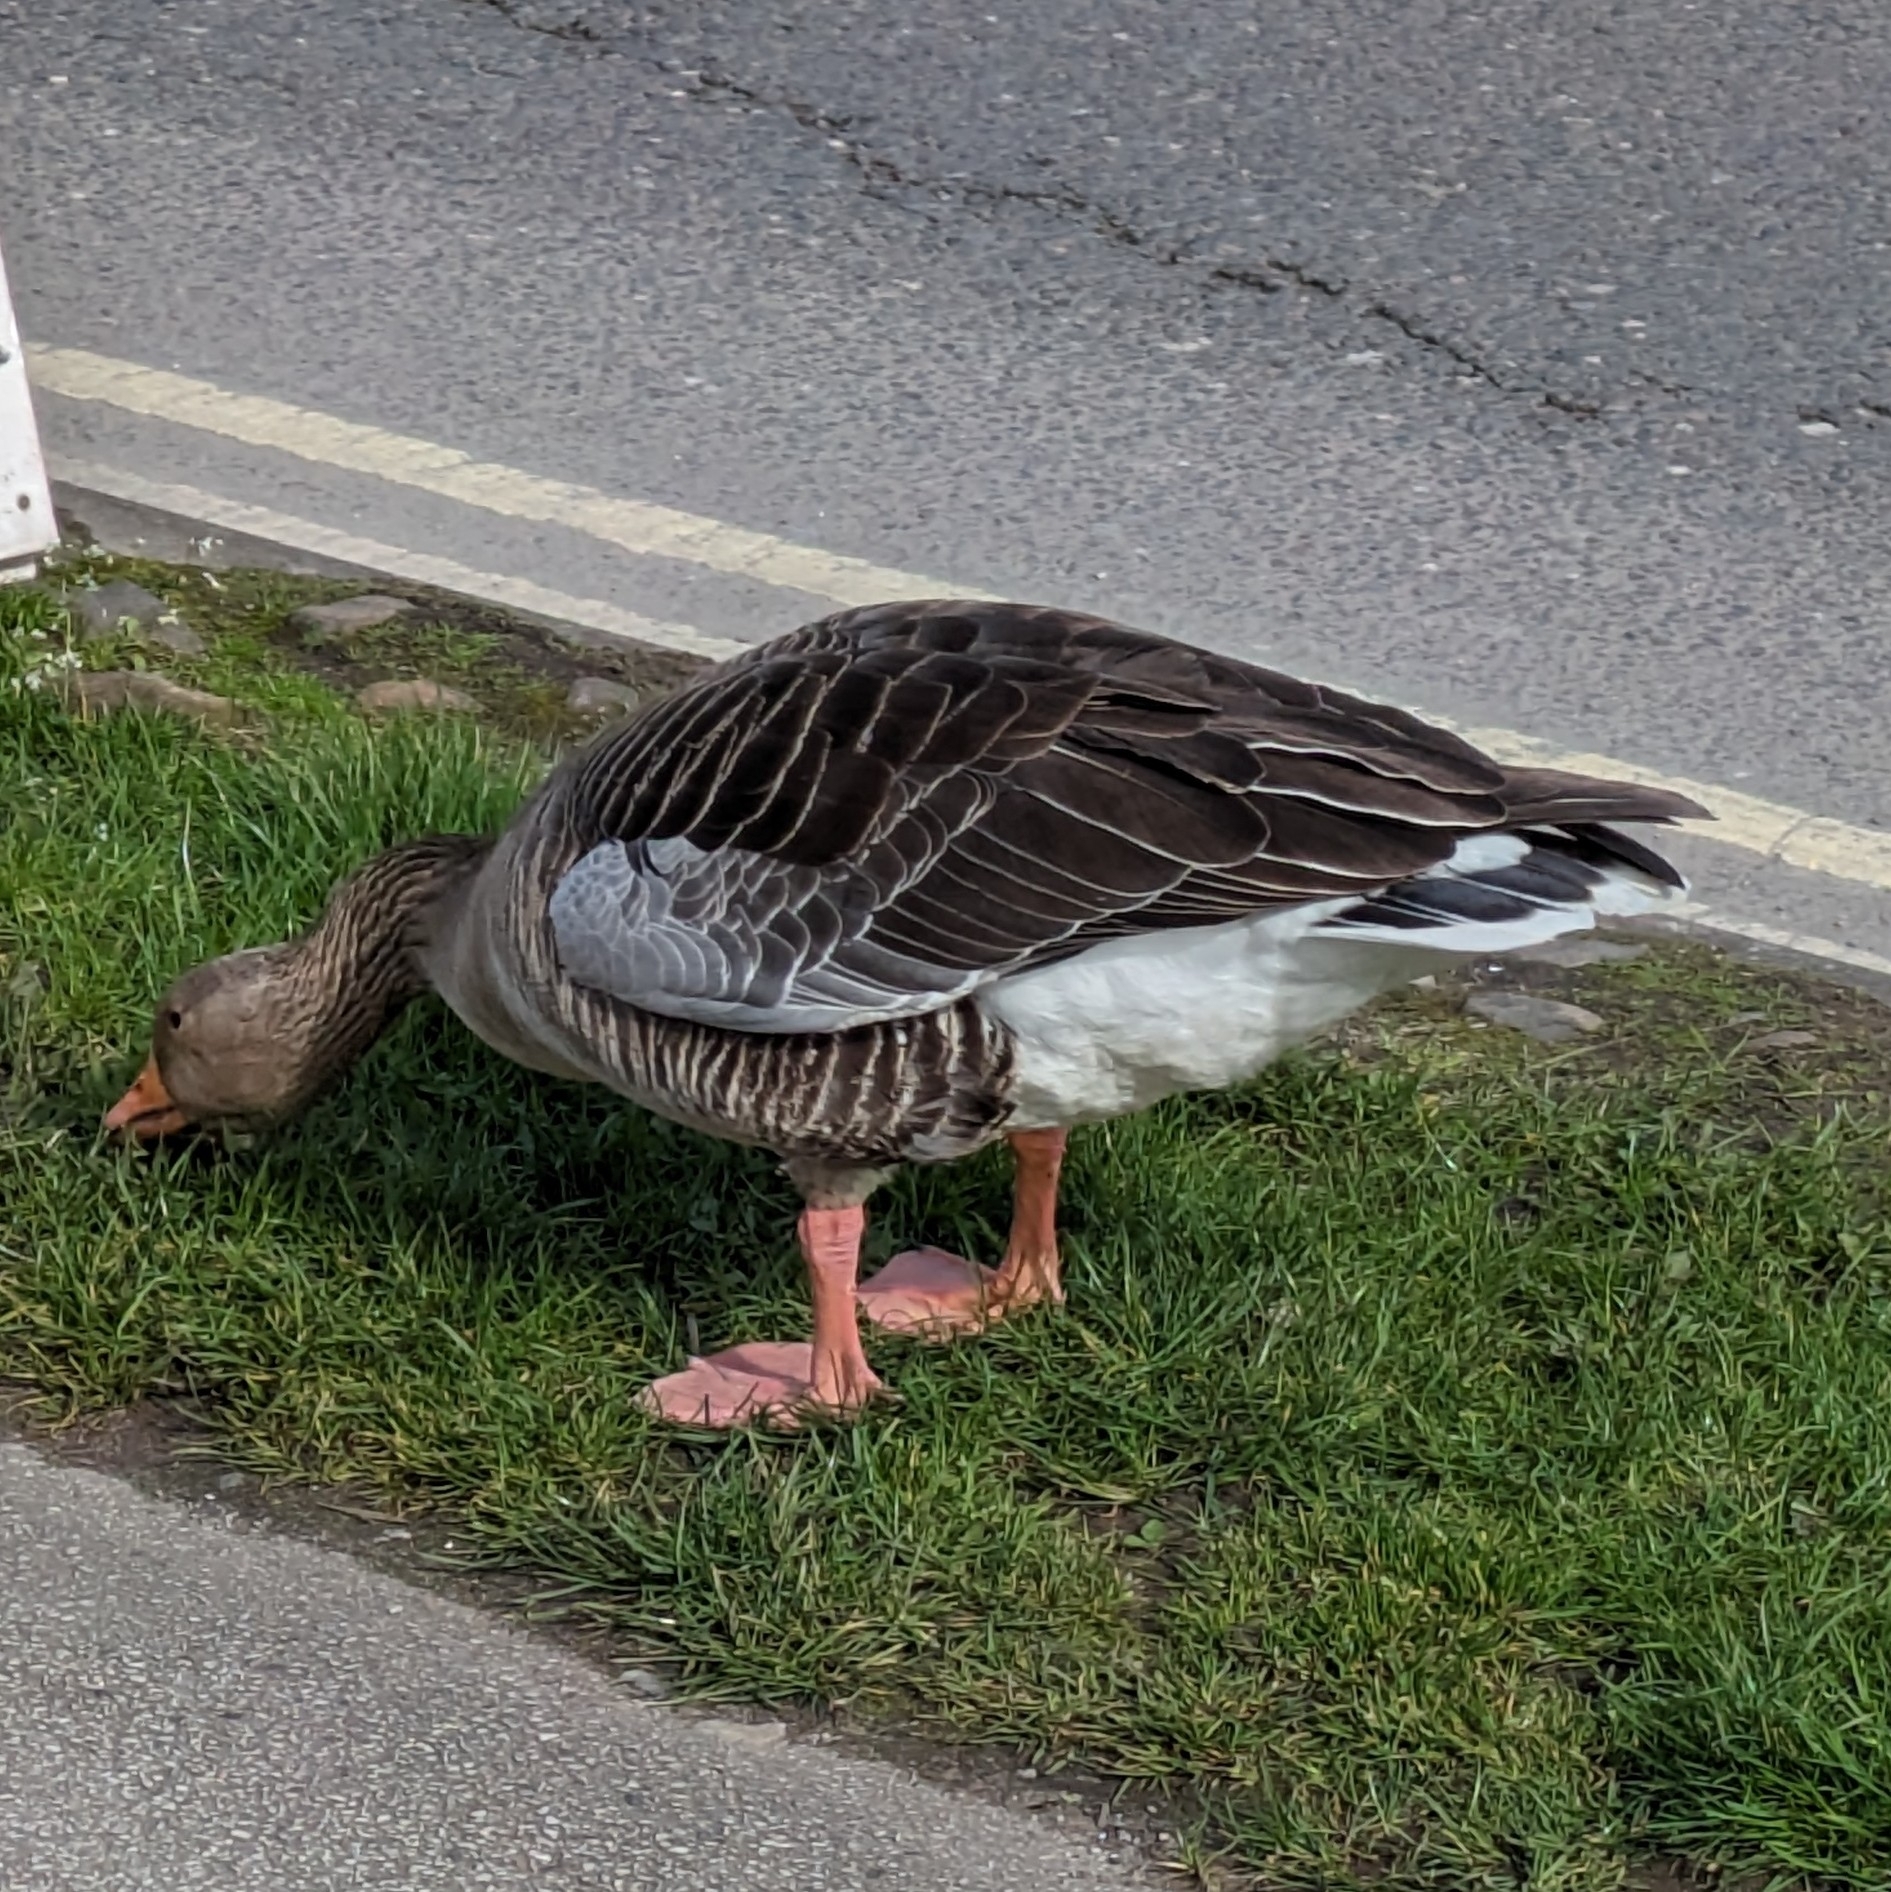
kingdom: Animalia
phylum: Chordata
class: Aves
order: Anseriformes
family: Anatidae
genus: Anser
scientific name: Anser anser
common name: Greylag goose
